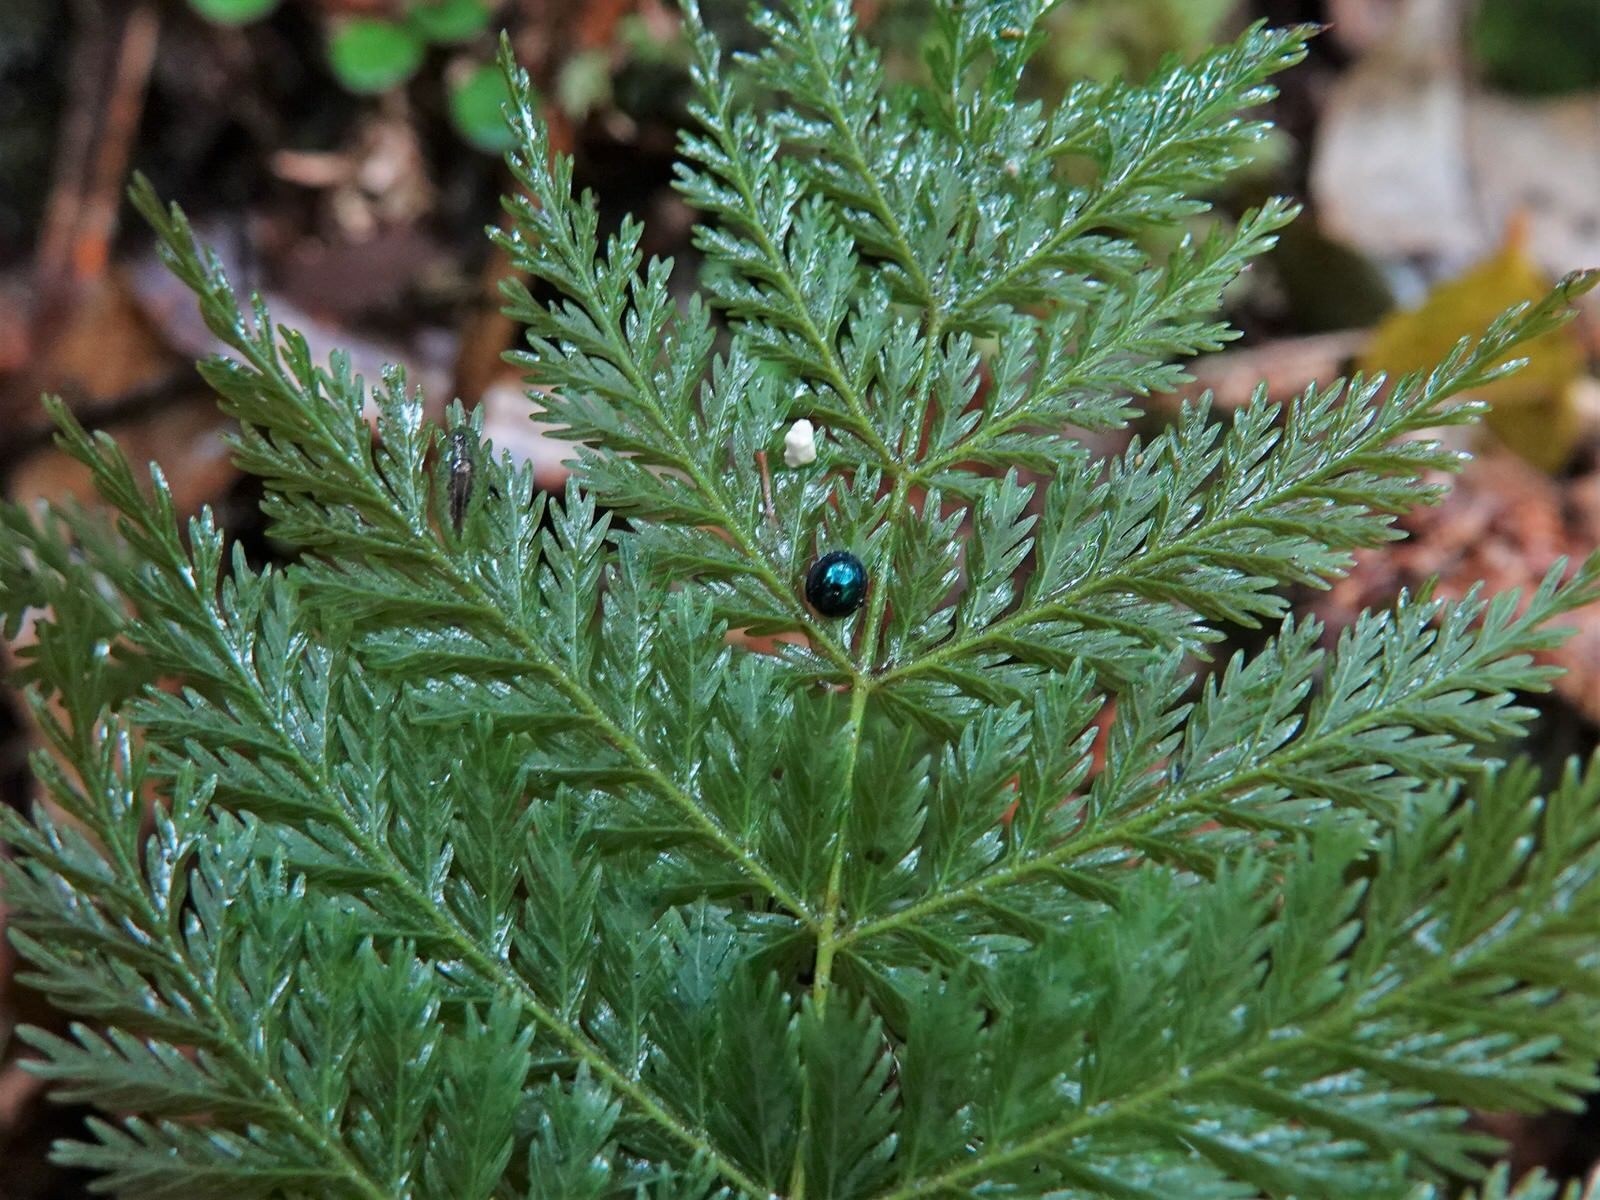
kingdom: Animalia
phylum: Arthropoda
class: Insecta
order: Coleoptera
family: Coccinellidae
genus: Halmus
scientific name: Halmus chalybeus
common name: Steel blue ladybird beetle
